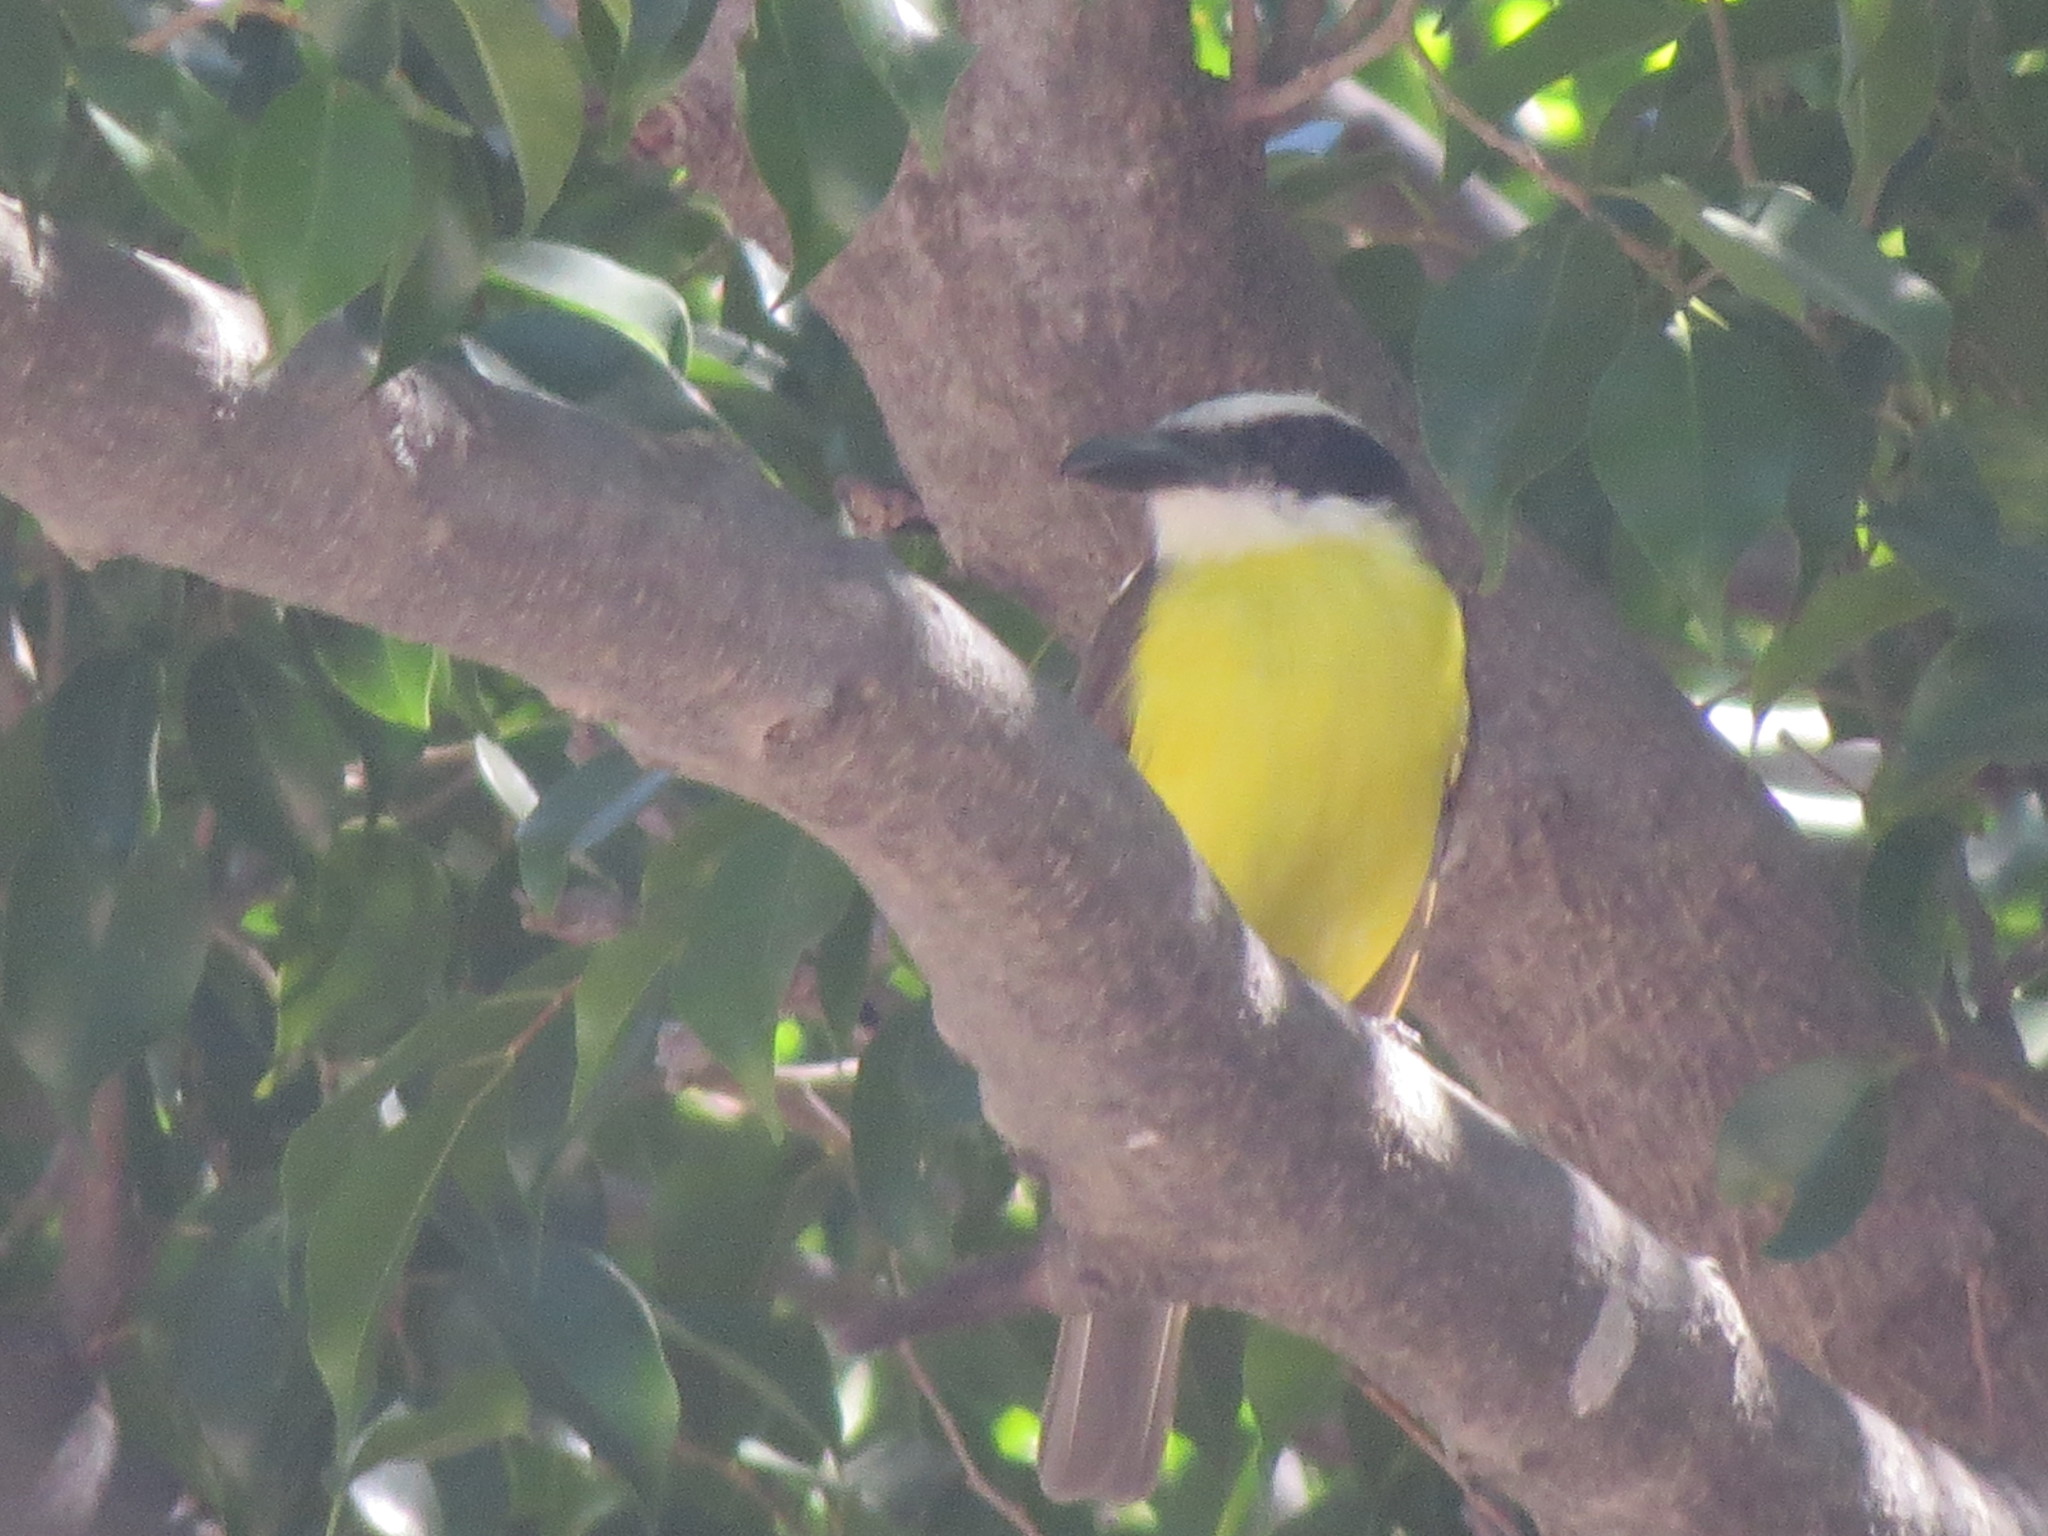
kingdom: Animalia
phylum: Chordata
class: Aves
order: Passeriformes
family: Tyrannidae
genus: Megarynchus
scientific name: Megarynchus pitangua
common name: Boat-billed flycatcher
